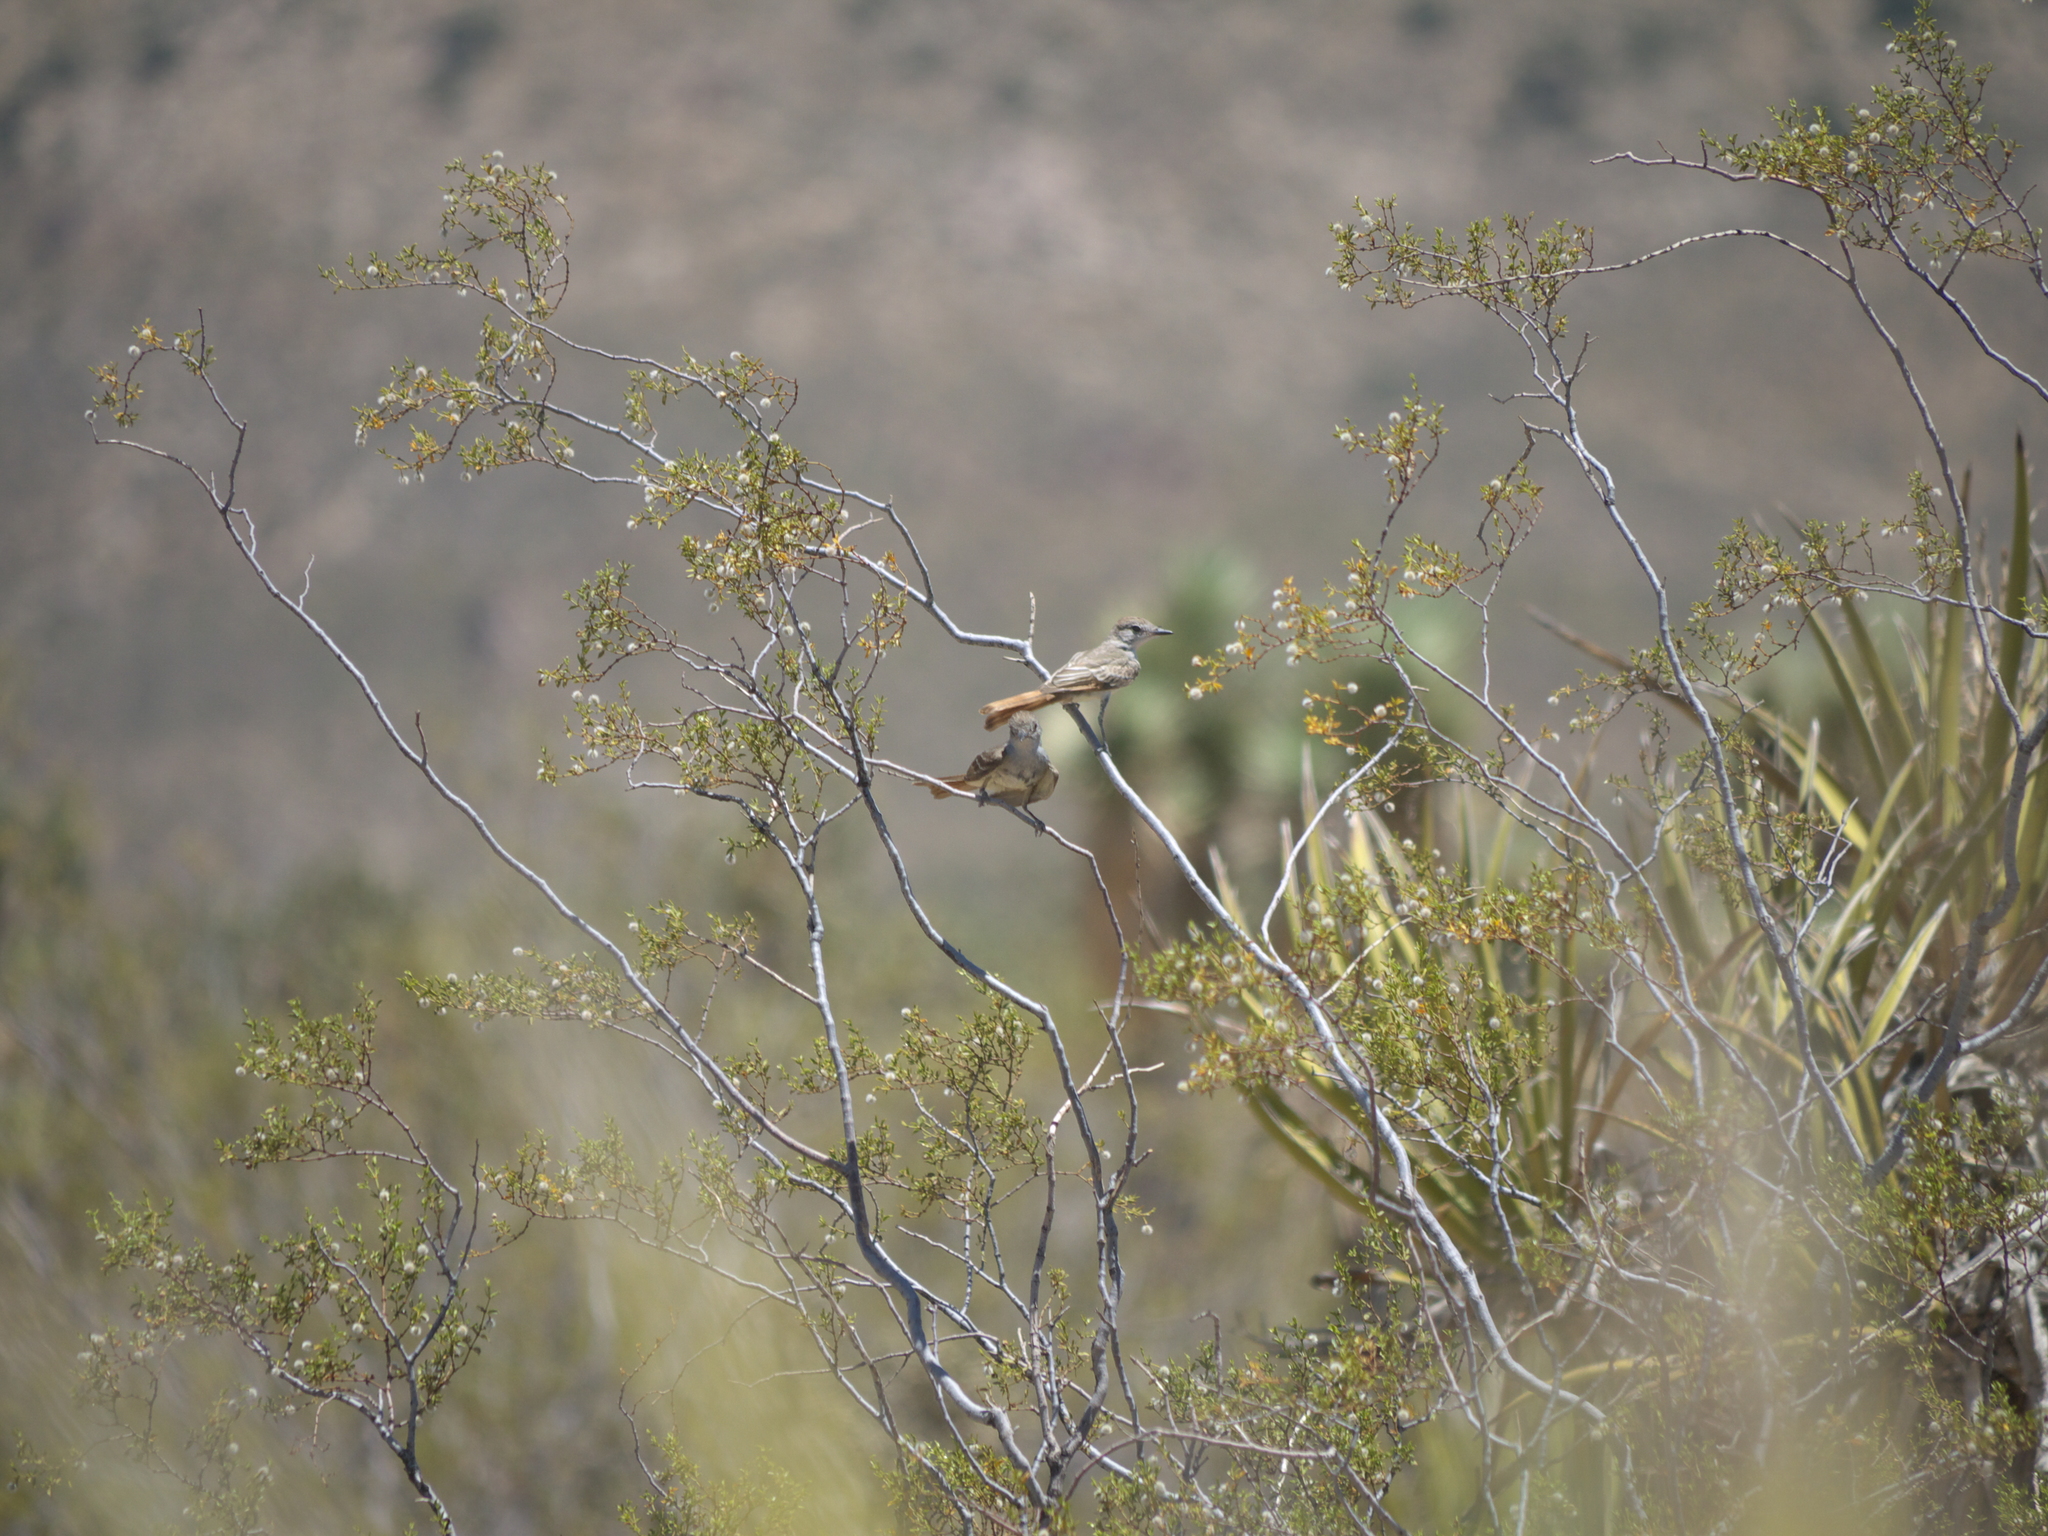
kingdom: Plantae
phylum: Tracheophyta
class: Magnoliopsida
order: Zygophyllales
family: Zygophyllaceae
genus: Larrea
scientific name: Larrea tridentata
